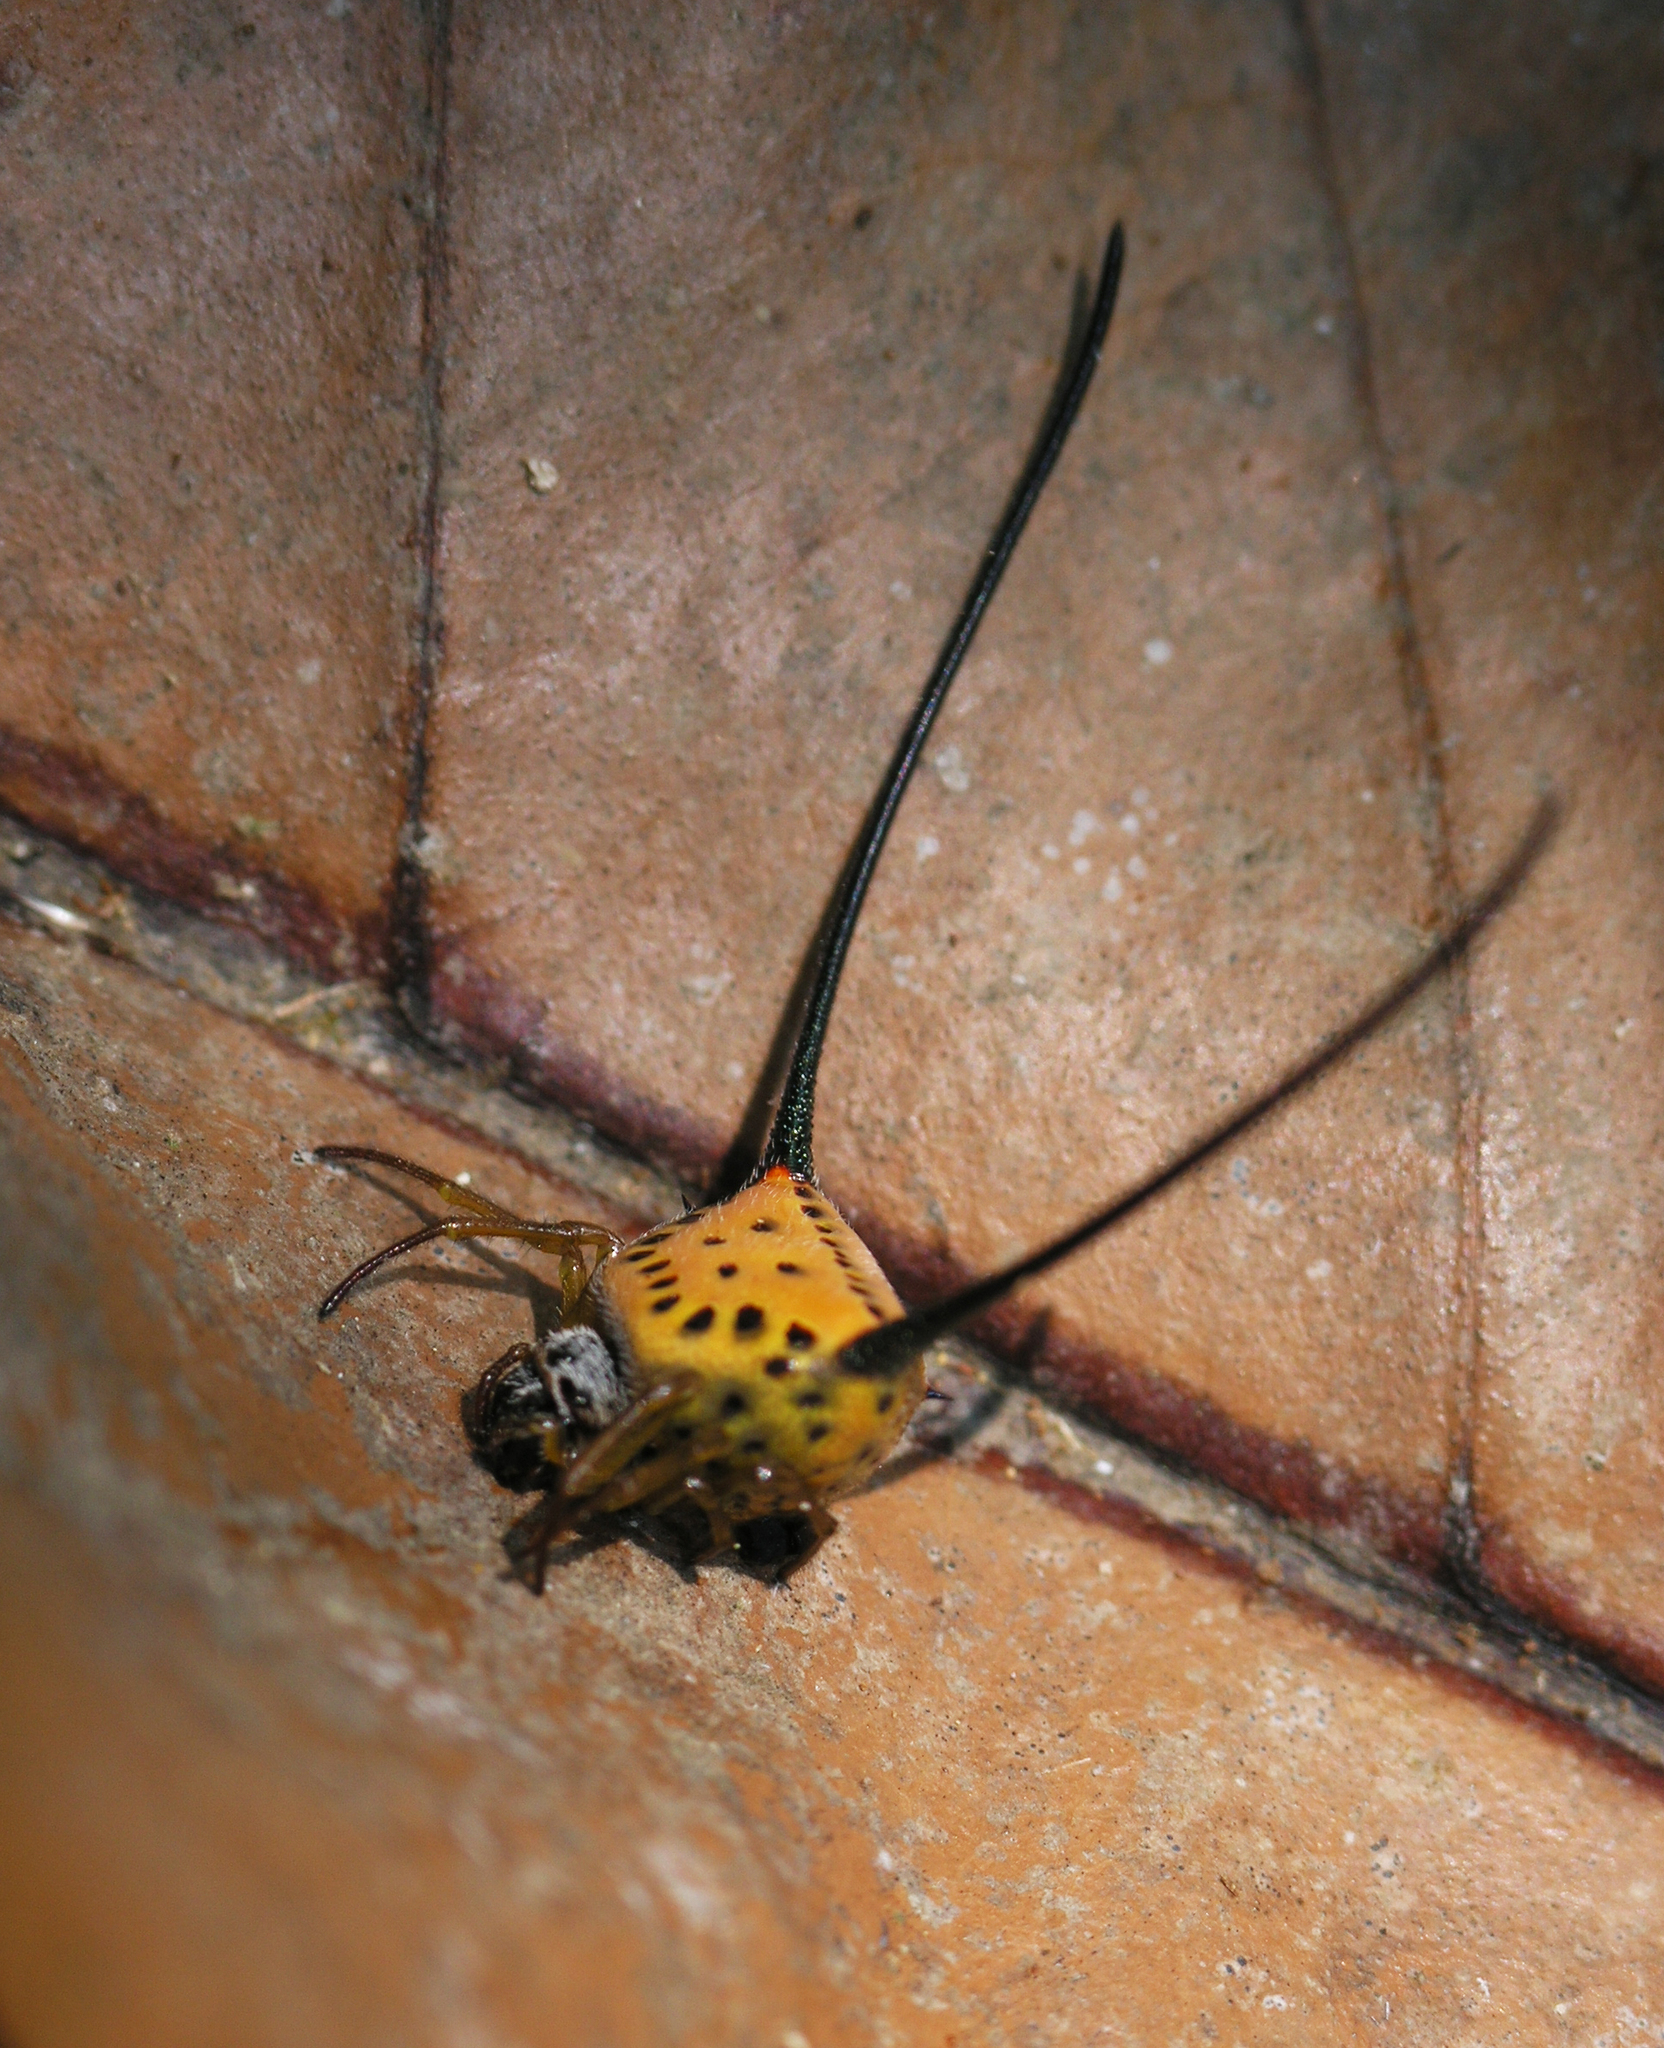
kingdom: Animalia
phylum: Arthropoda
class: Arachnida
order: Araneae
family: Araneidae
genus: Macracantha
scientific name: Macracantha arcuata
